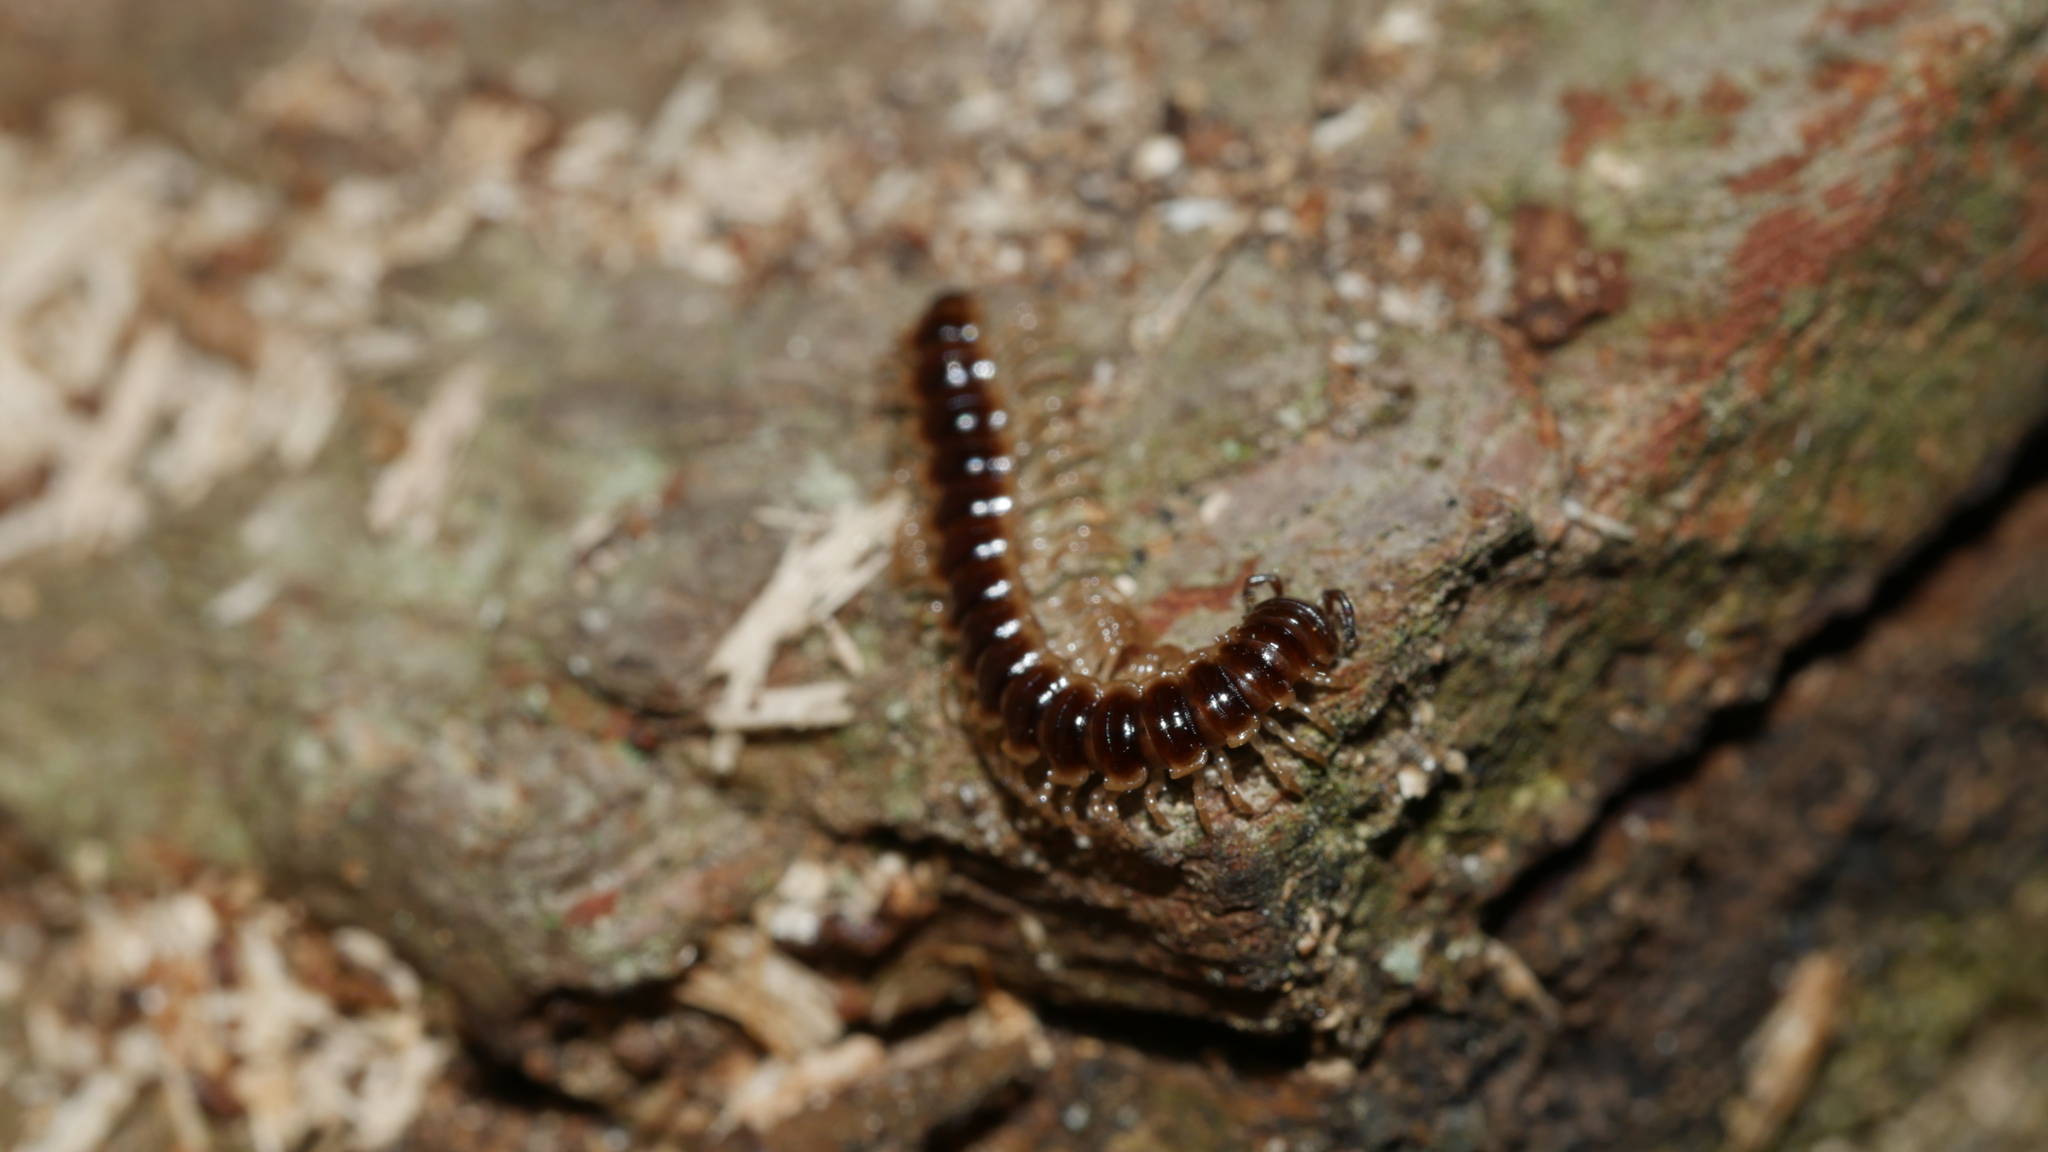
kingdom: Animalia
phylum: Arthropoda
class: Diplopoda
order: Polydesmida
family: Paradoxosomatidae
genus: Oxidus
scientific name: Oxidus gracilis
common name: Greenhouse millipede
